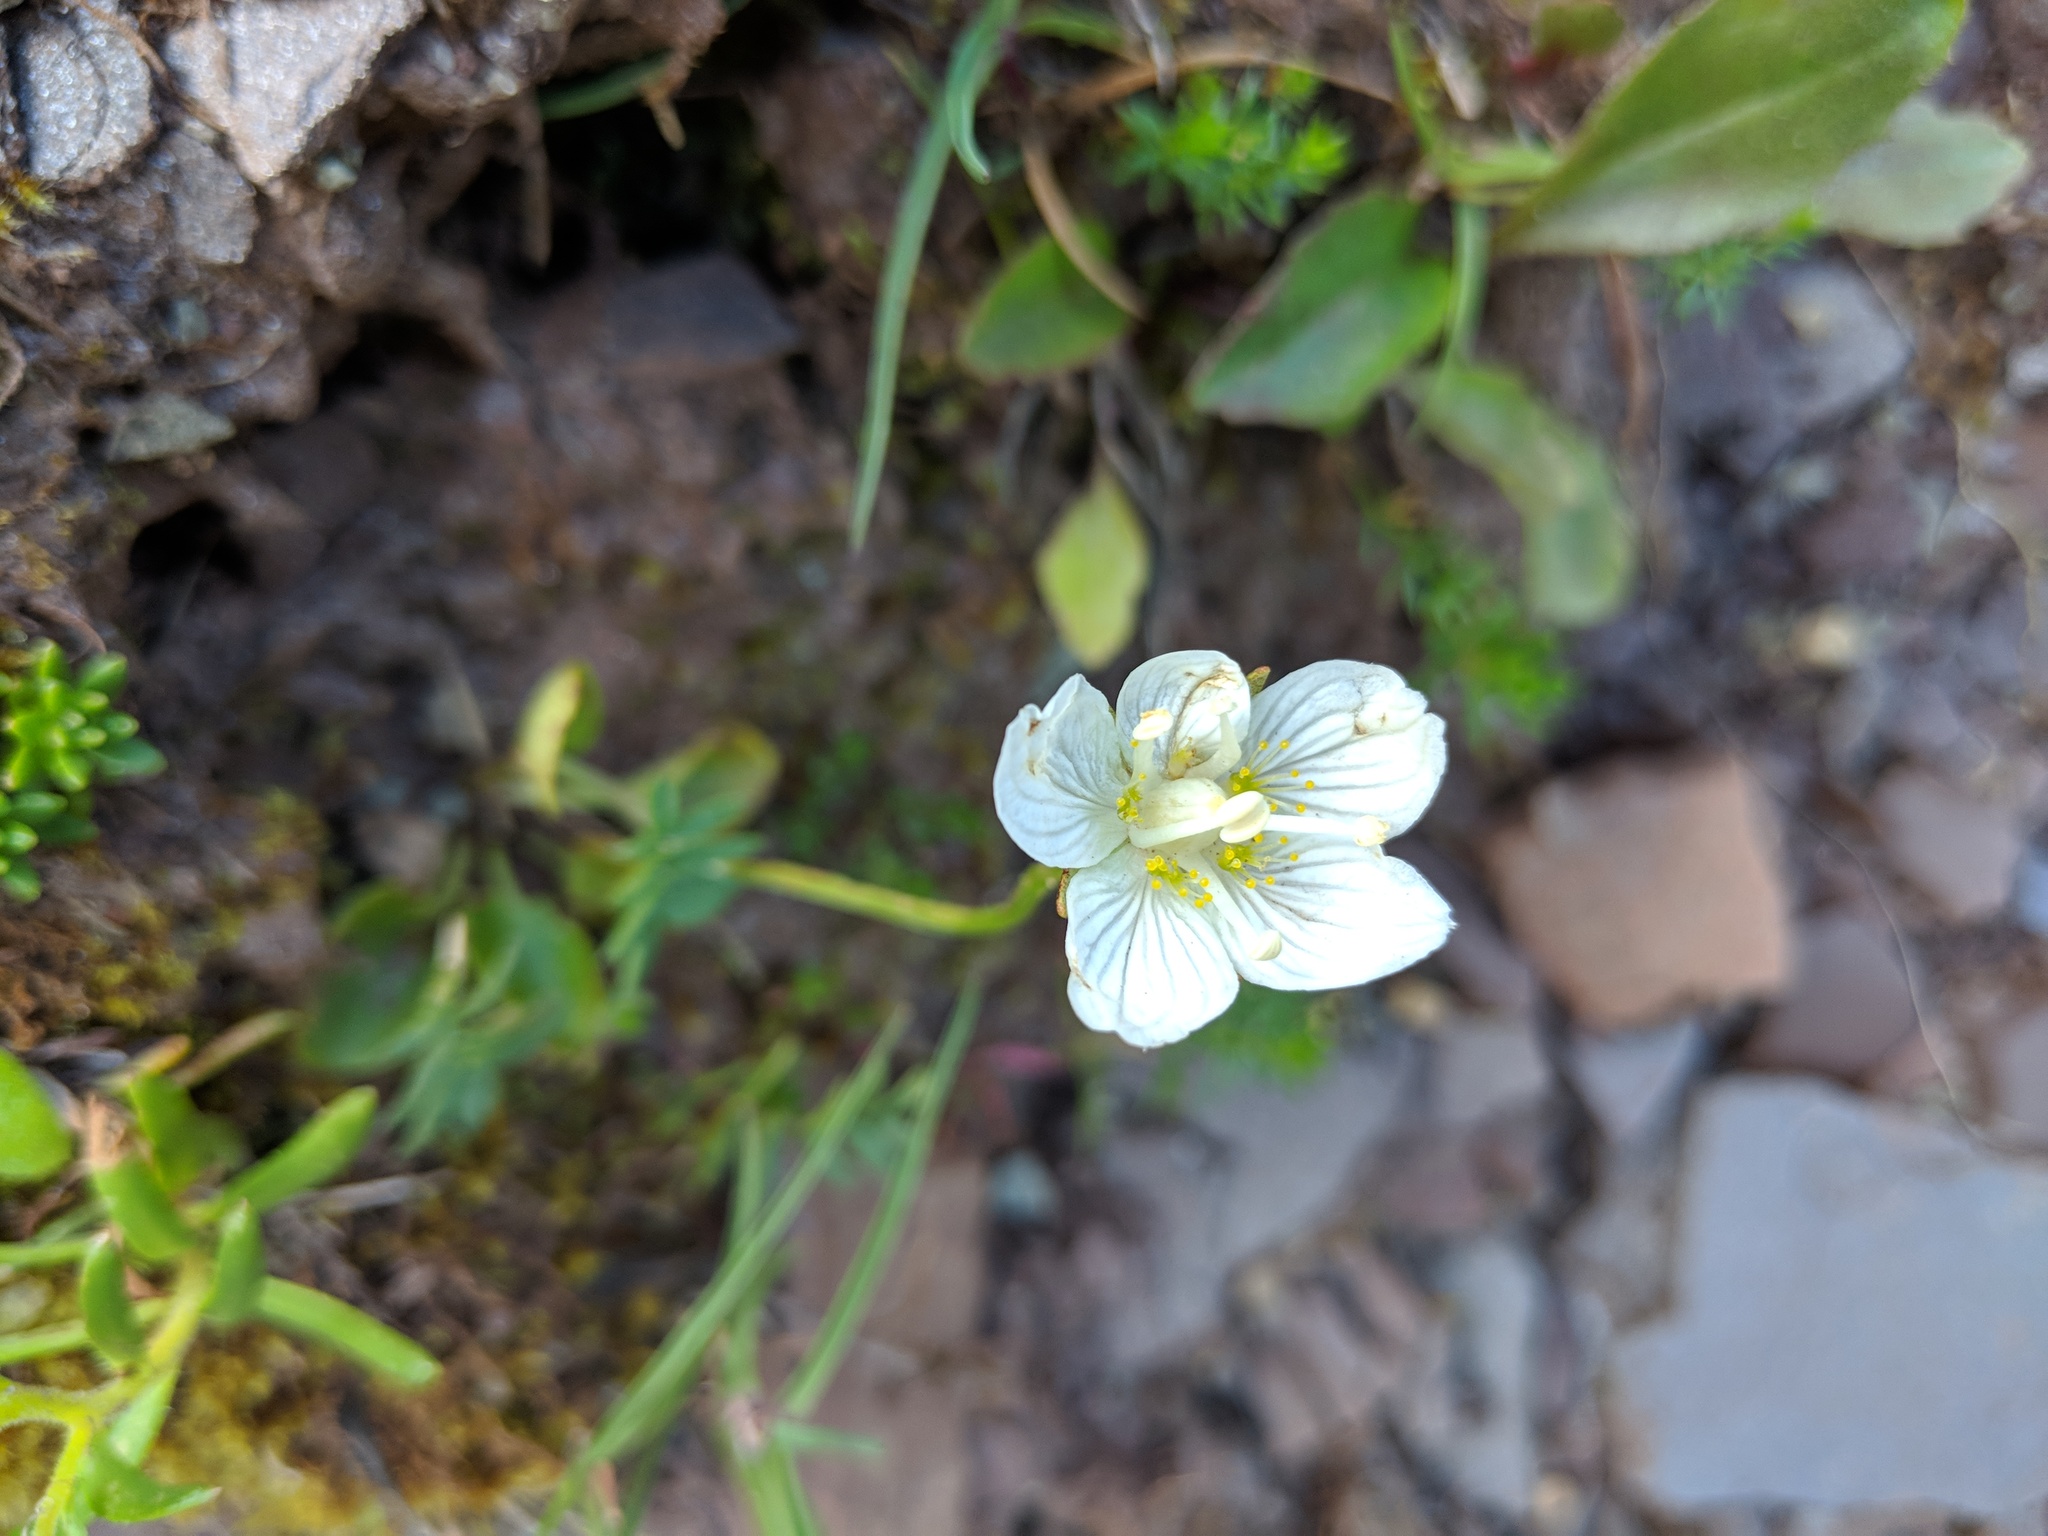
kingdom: Plantae
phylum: Tracheophyta
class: Magnoliopsida
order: Celastrales
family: Parnassiaceae
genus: Parnassia
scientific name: Parnassia palustris
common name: Grass-of-parnassus
